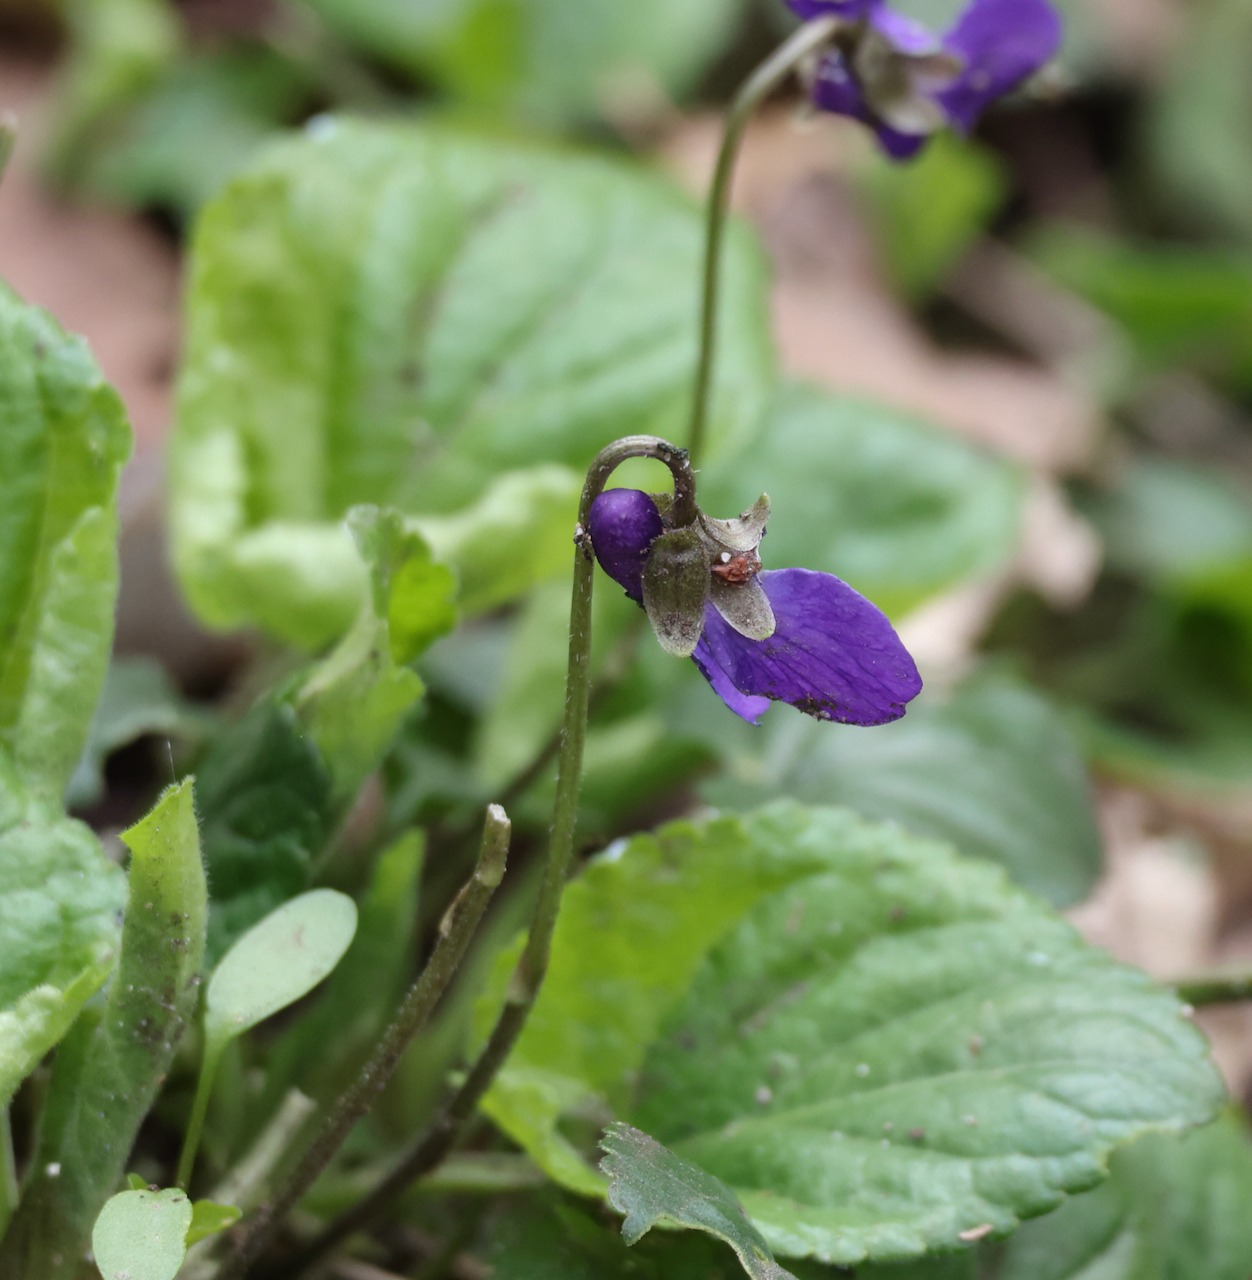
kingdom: Plantae
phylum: Tracheophyta
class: Magnoliopsida
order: Malpighiales
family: Violaceae
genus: Viola
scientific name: Viola odorata
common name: Sweet violet
